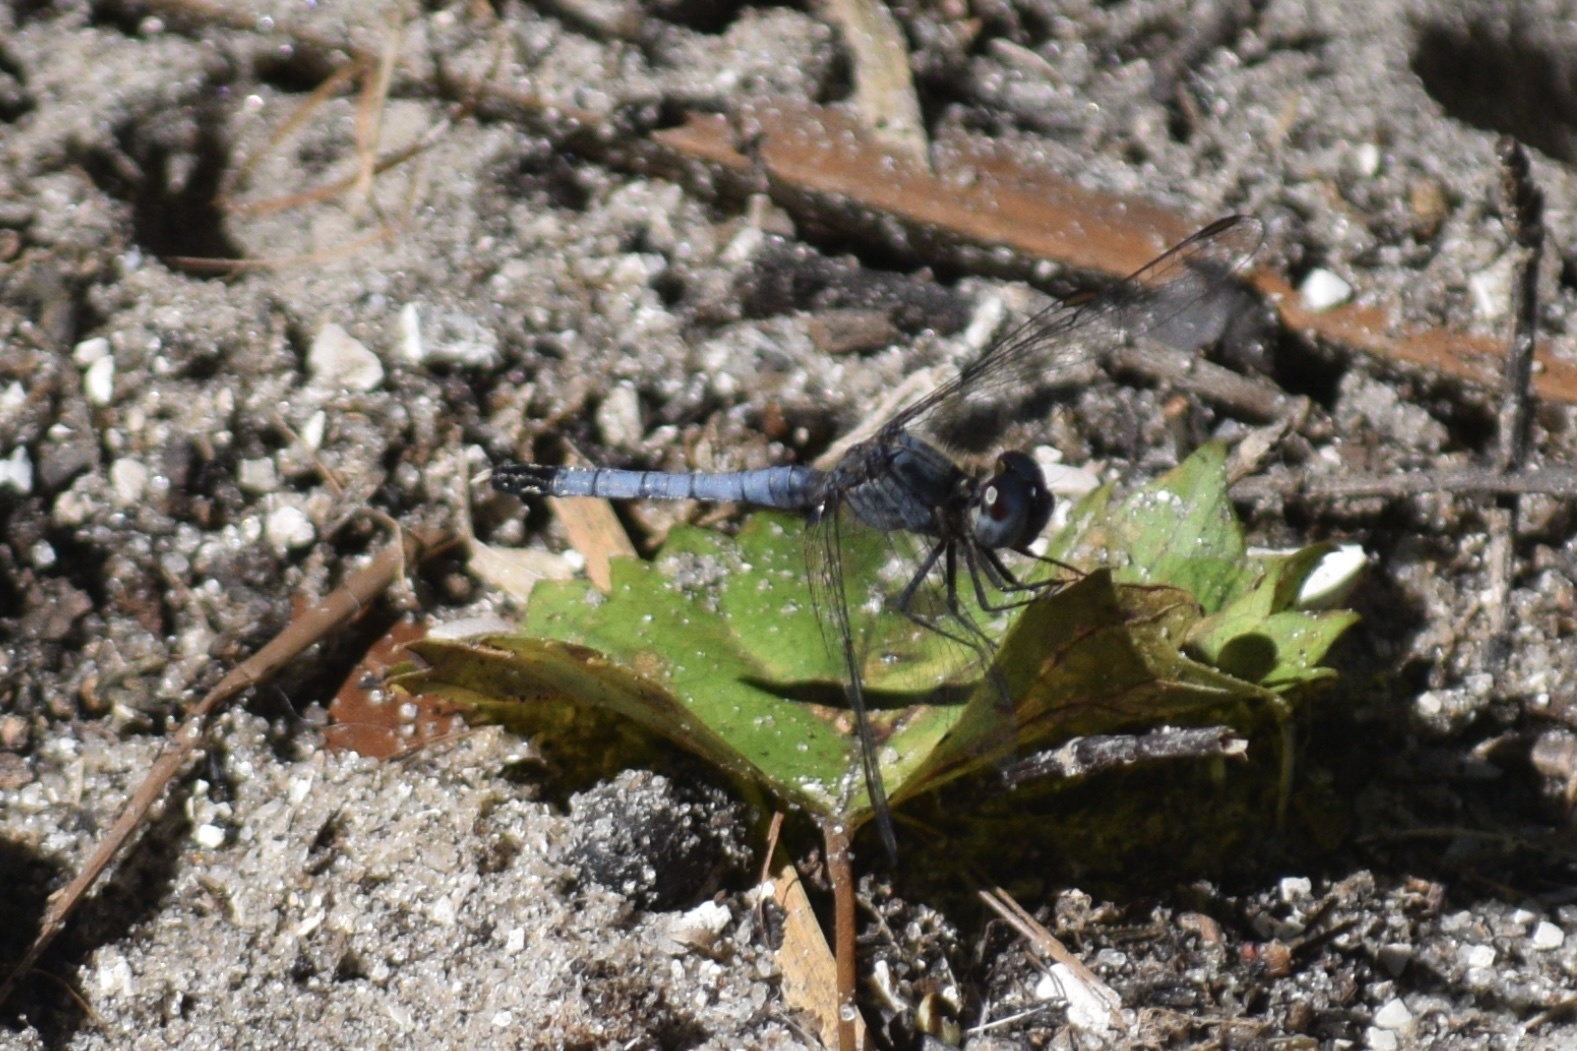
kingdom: Animalia
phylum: Arthropoda
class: Insecta
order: Odonata
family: Libellulidae
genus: Erythrodiplax
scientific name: Erythrodiplax minuscula
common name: Little blue dragonlet
